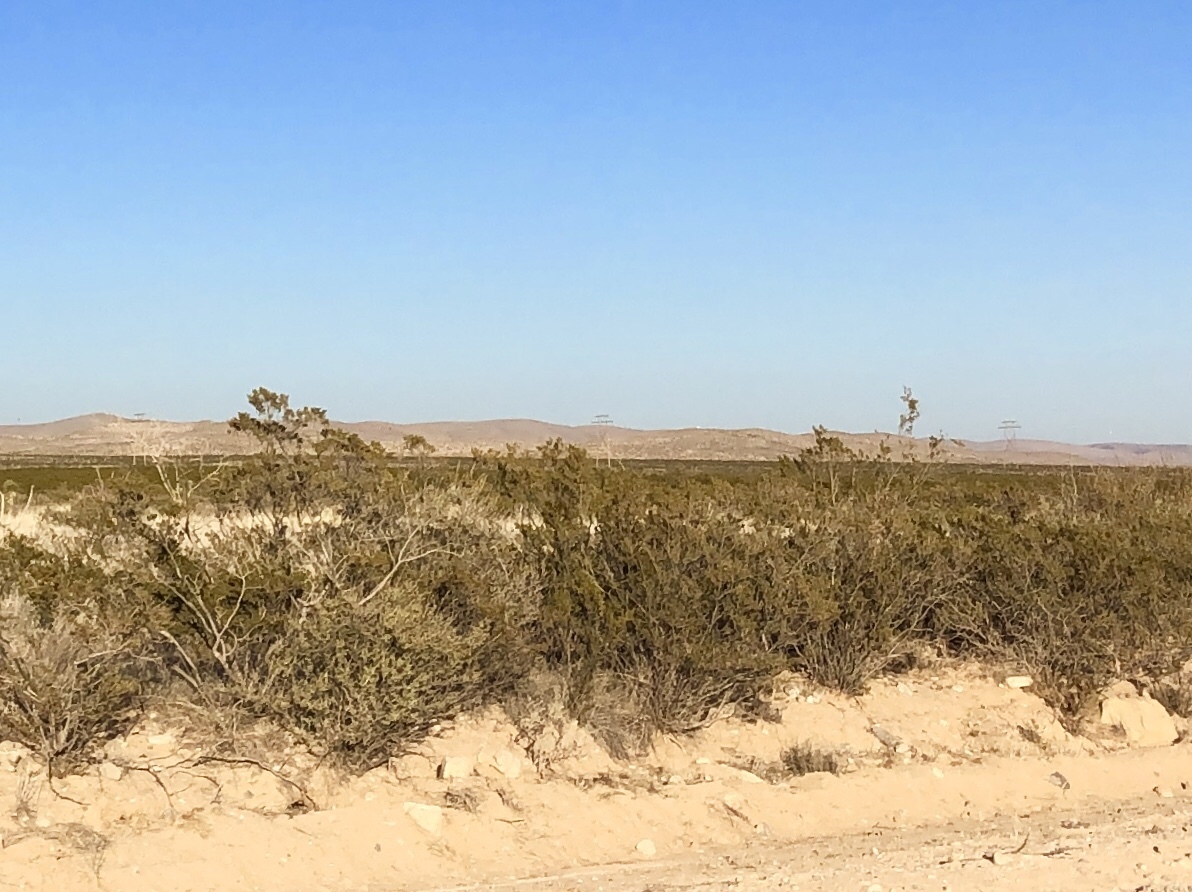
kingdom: Plantae
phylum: Tracheophyta
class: Magnoliopsida
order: Zygophyllales
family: Zygophyllaceae
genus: Larrea
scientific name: Larrea tridentata
